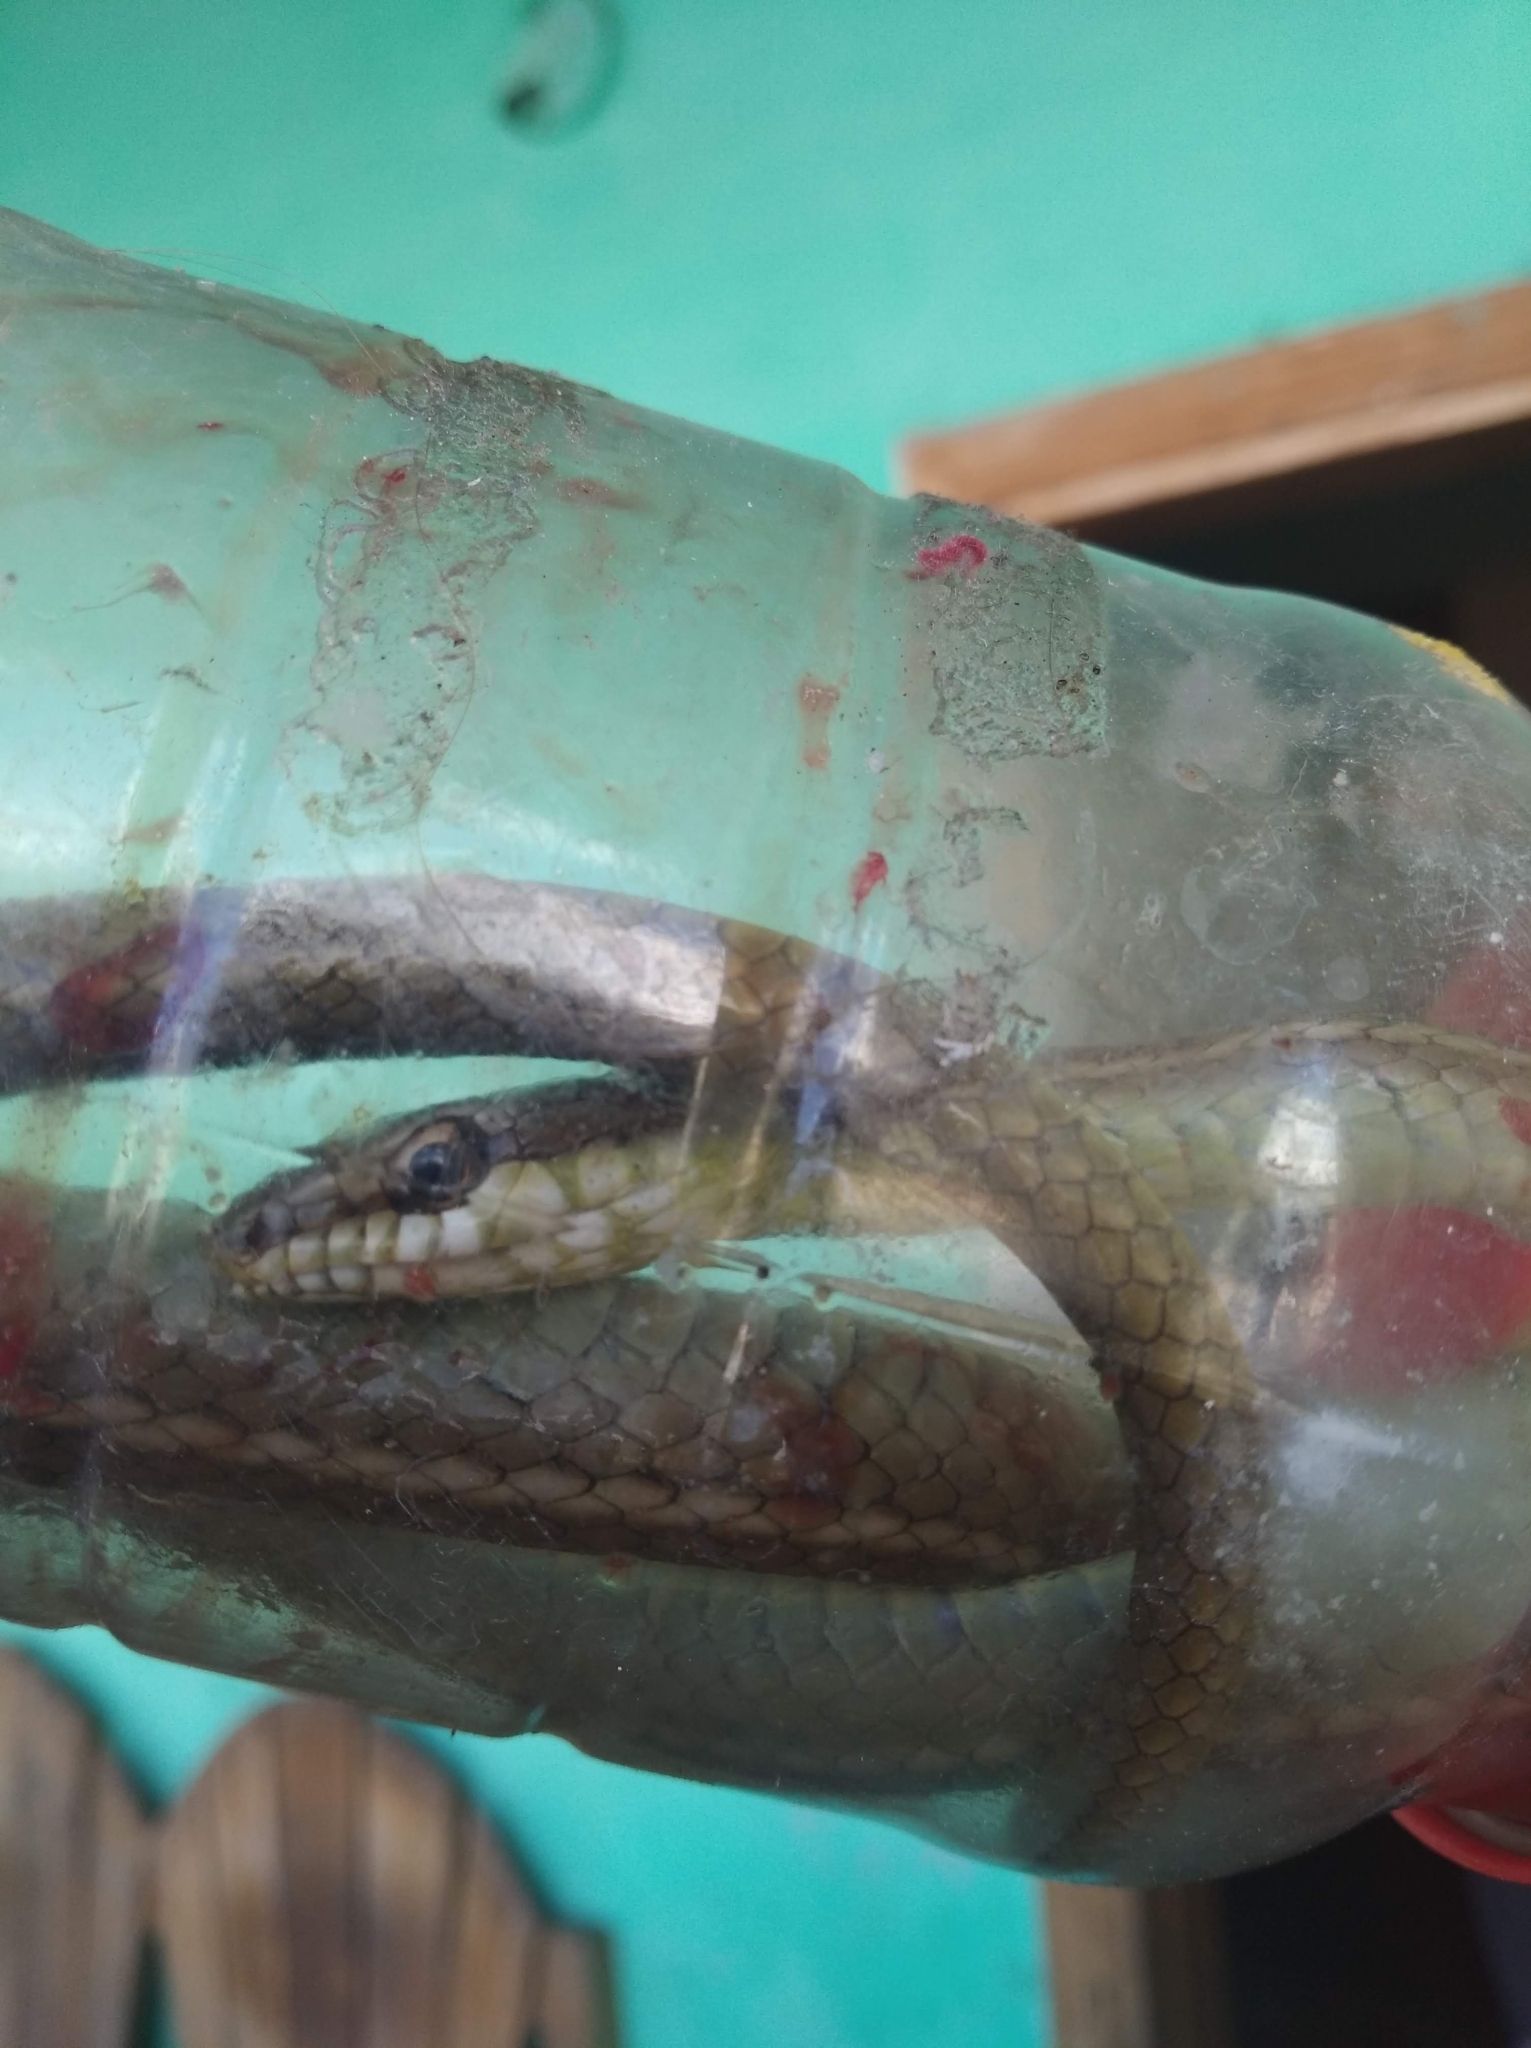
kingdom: Animalia
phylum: Chordata
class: Squamata
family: Colubridae
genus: Mastigodryas
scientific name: Mastigodryas boddaerti
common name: Boddaert's tropical racer
